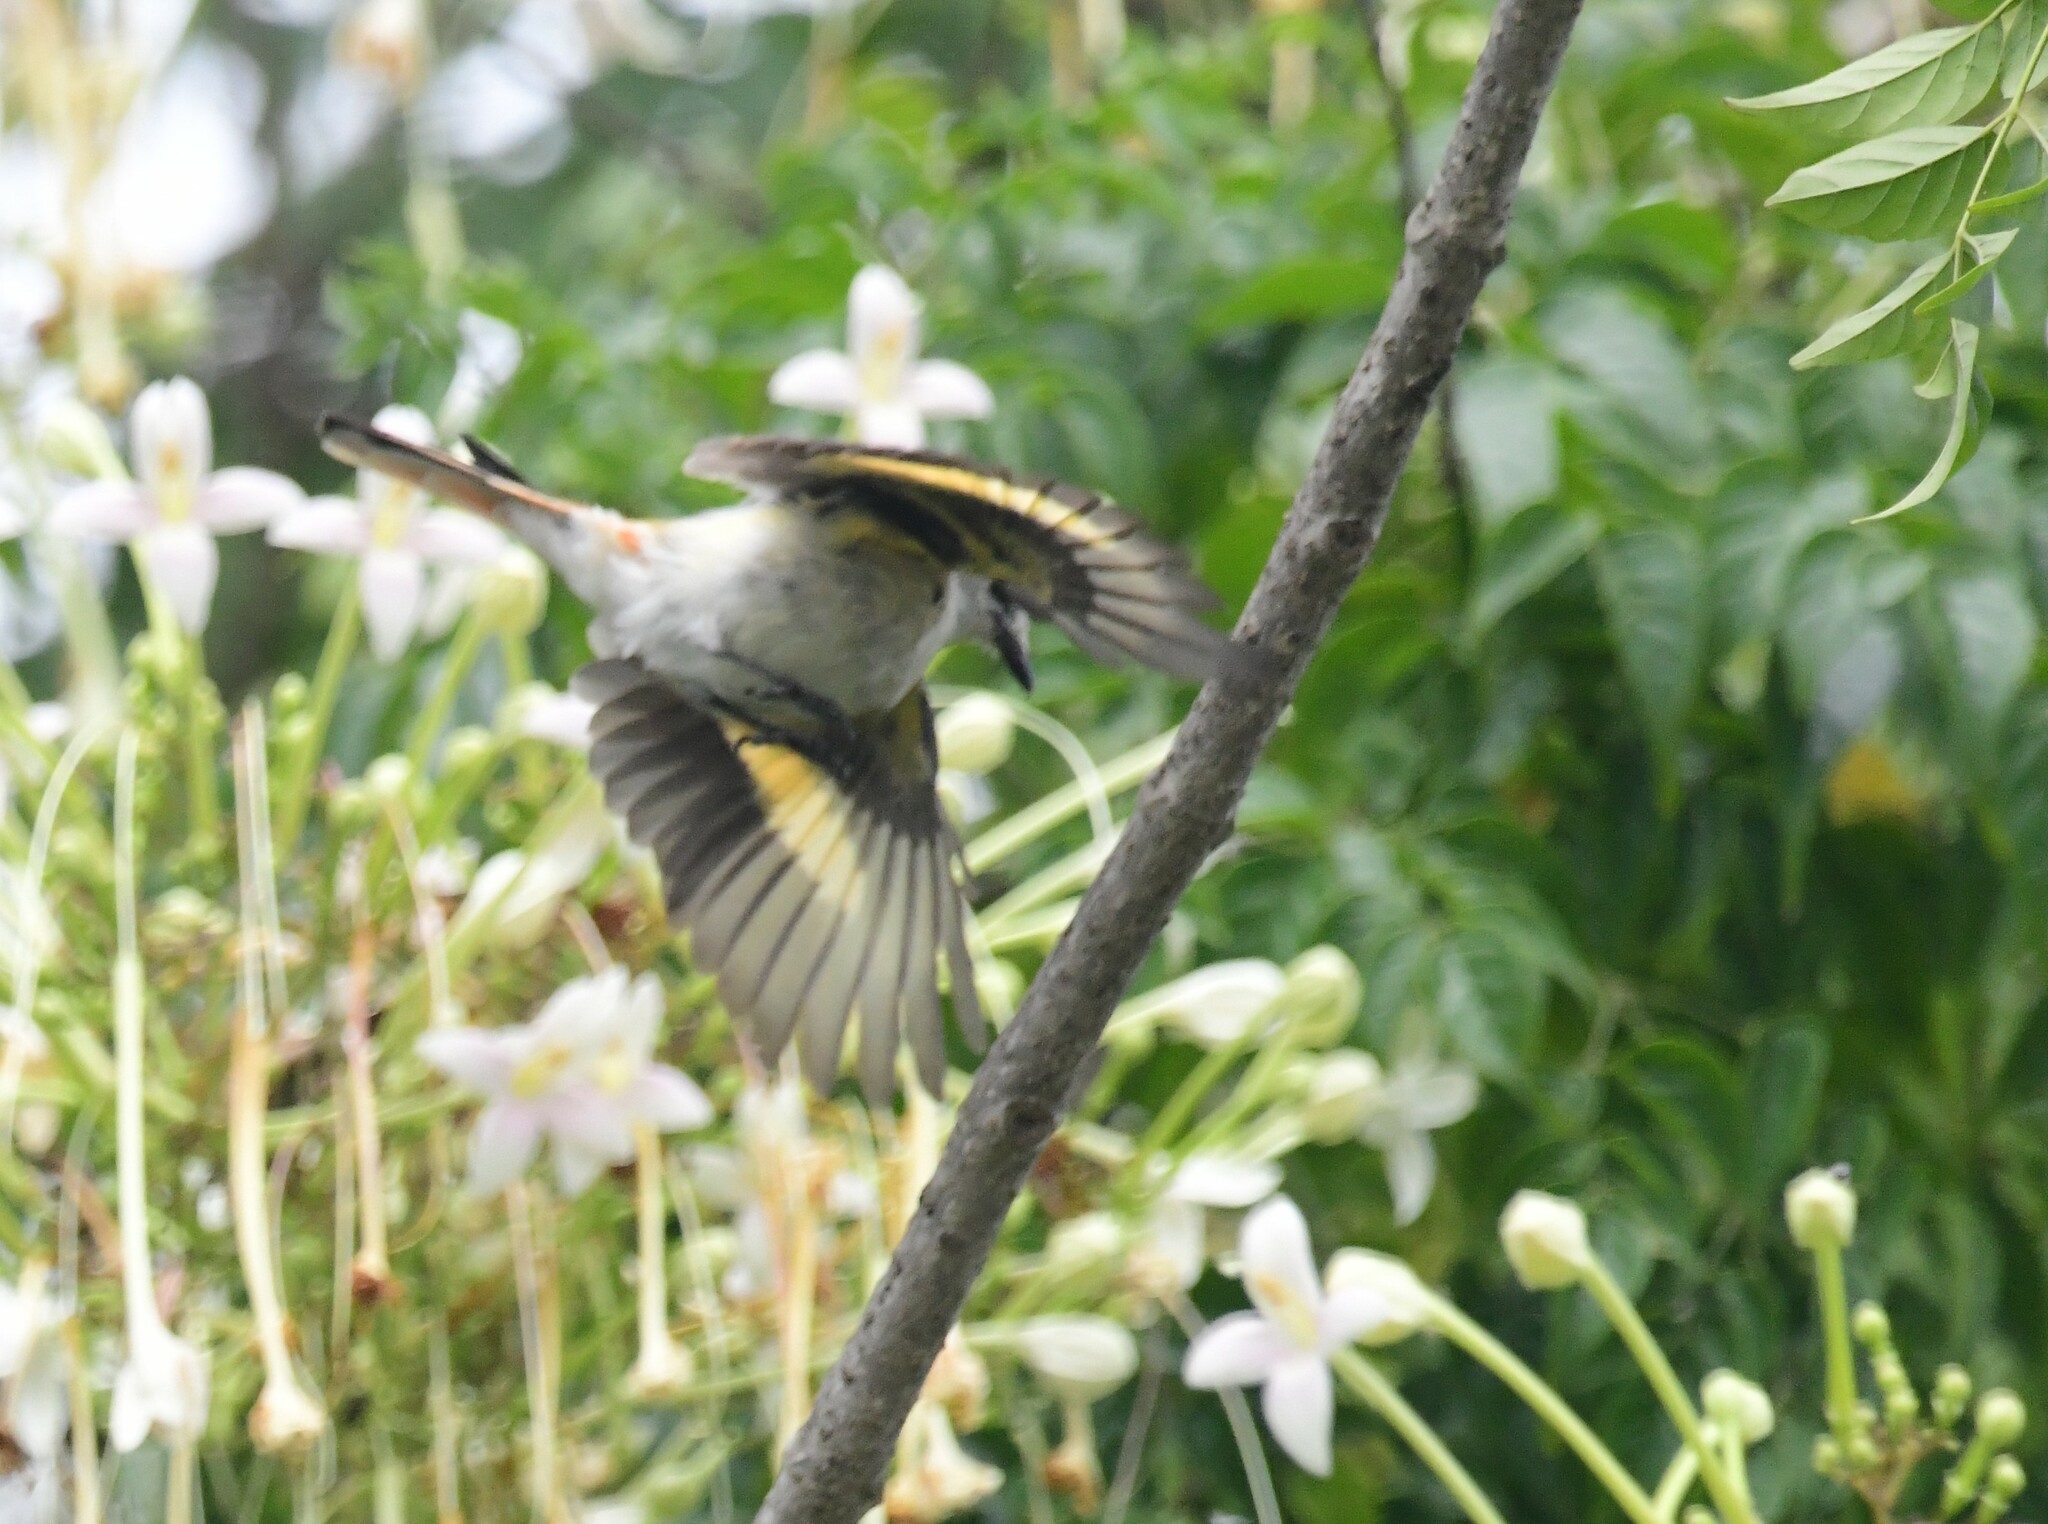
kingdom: Animalia
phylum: Chordata
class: Aves
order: Passeriformes
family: Campephagidae
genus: Pericrocotus
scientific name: Pericrocotus cinnamomeus
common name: Small minivet
